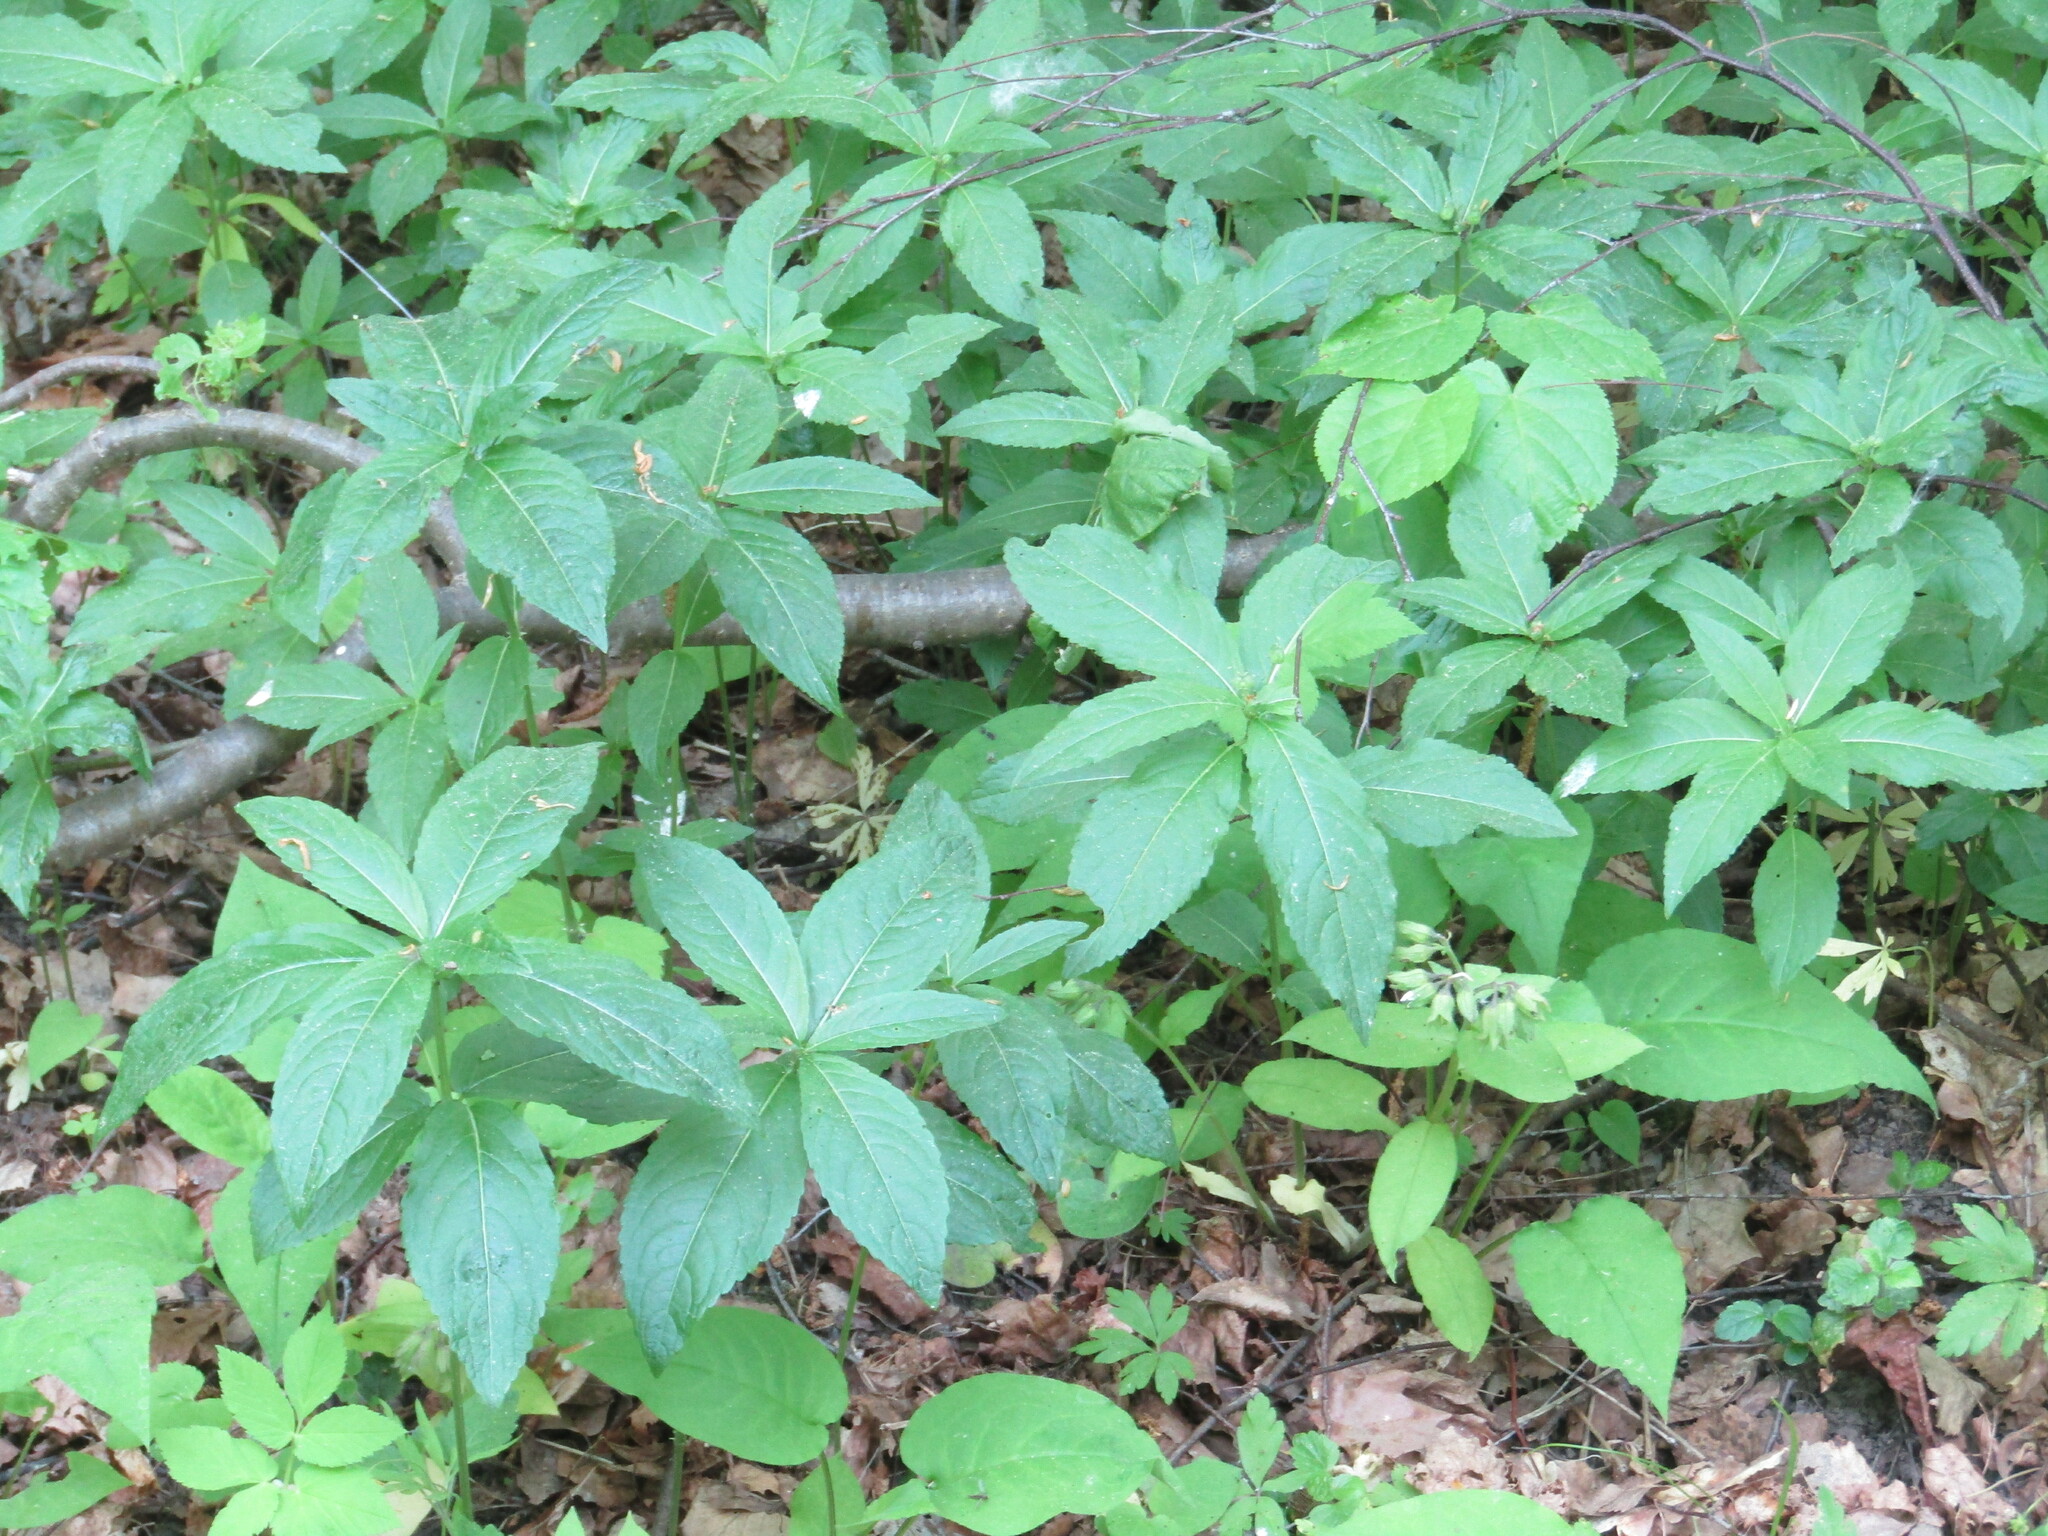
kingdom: Plantae
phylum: Tracheophyta
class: Magnoliopsida
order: Malpighiales
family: Euphorbiaceae
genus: Mercurialis
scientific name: Mercurialis perennis
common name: Dog mercury
